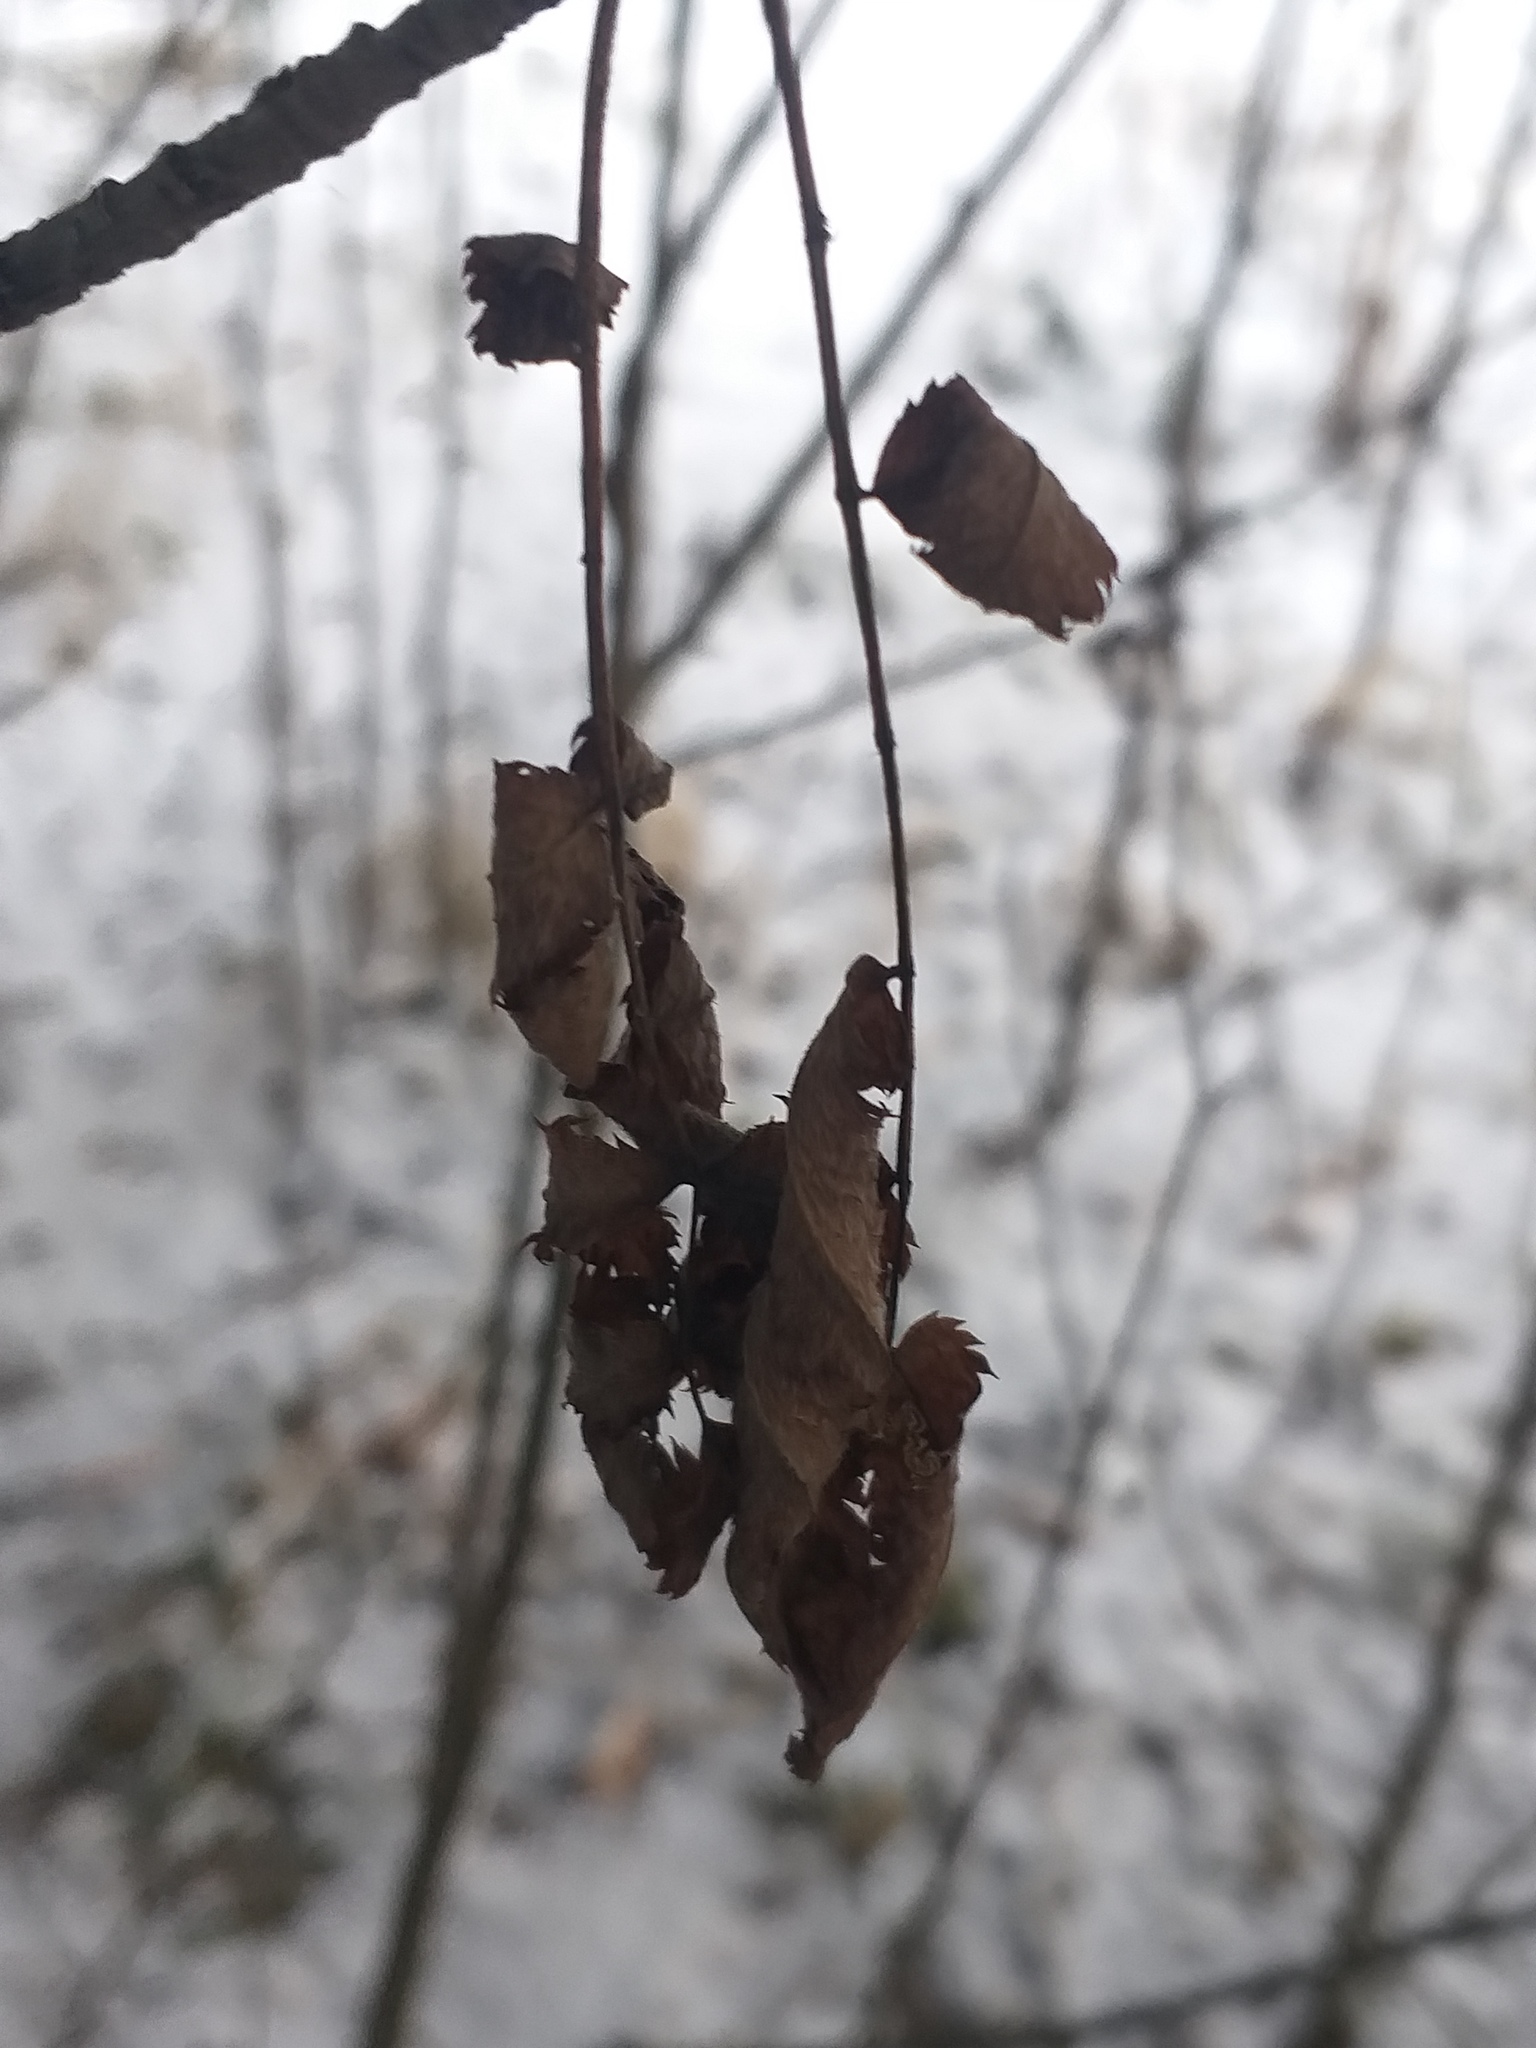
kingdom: Plantae
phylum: Tracheophyta
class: Magnoliopsida
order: Rosales
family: Rosaceae
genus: Sorbus
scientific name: Sorbus aucuparia
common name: Rowan
